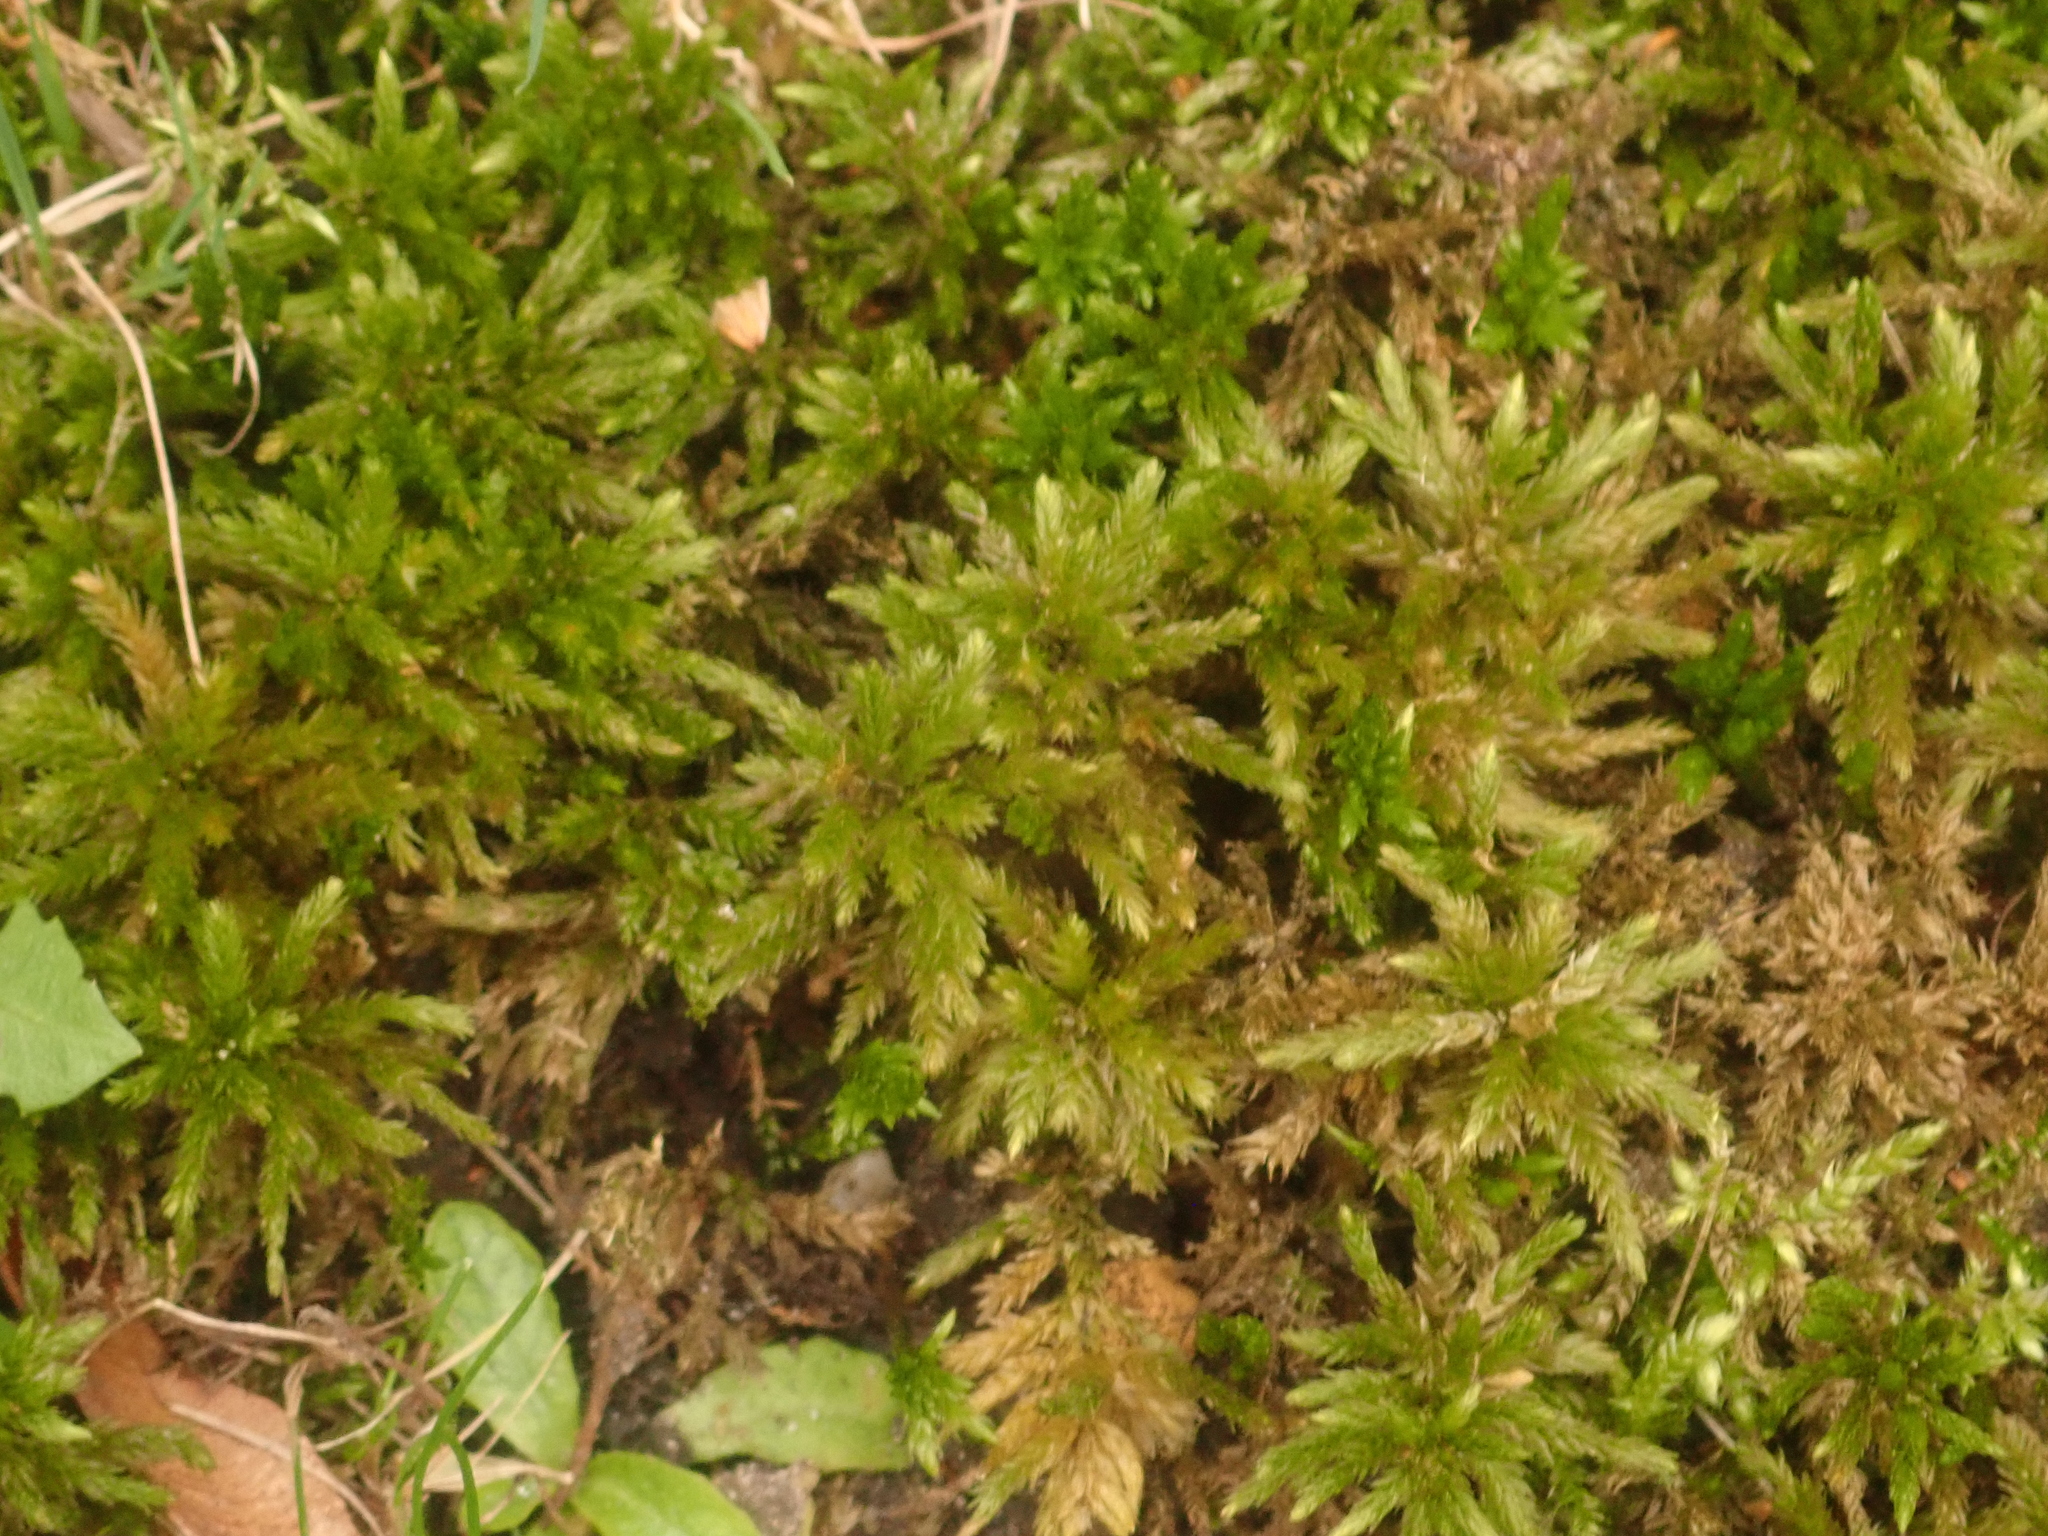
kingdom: Plantae
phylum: Bryophyta
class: Bryopsida
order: Hypnales
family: Climaciaceae
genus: Climacium
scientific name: Climacium dendroides
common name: Northern tree moss
